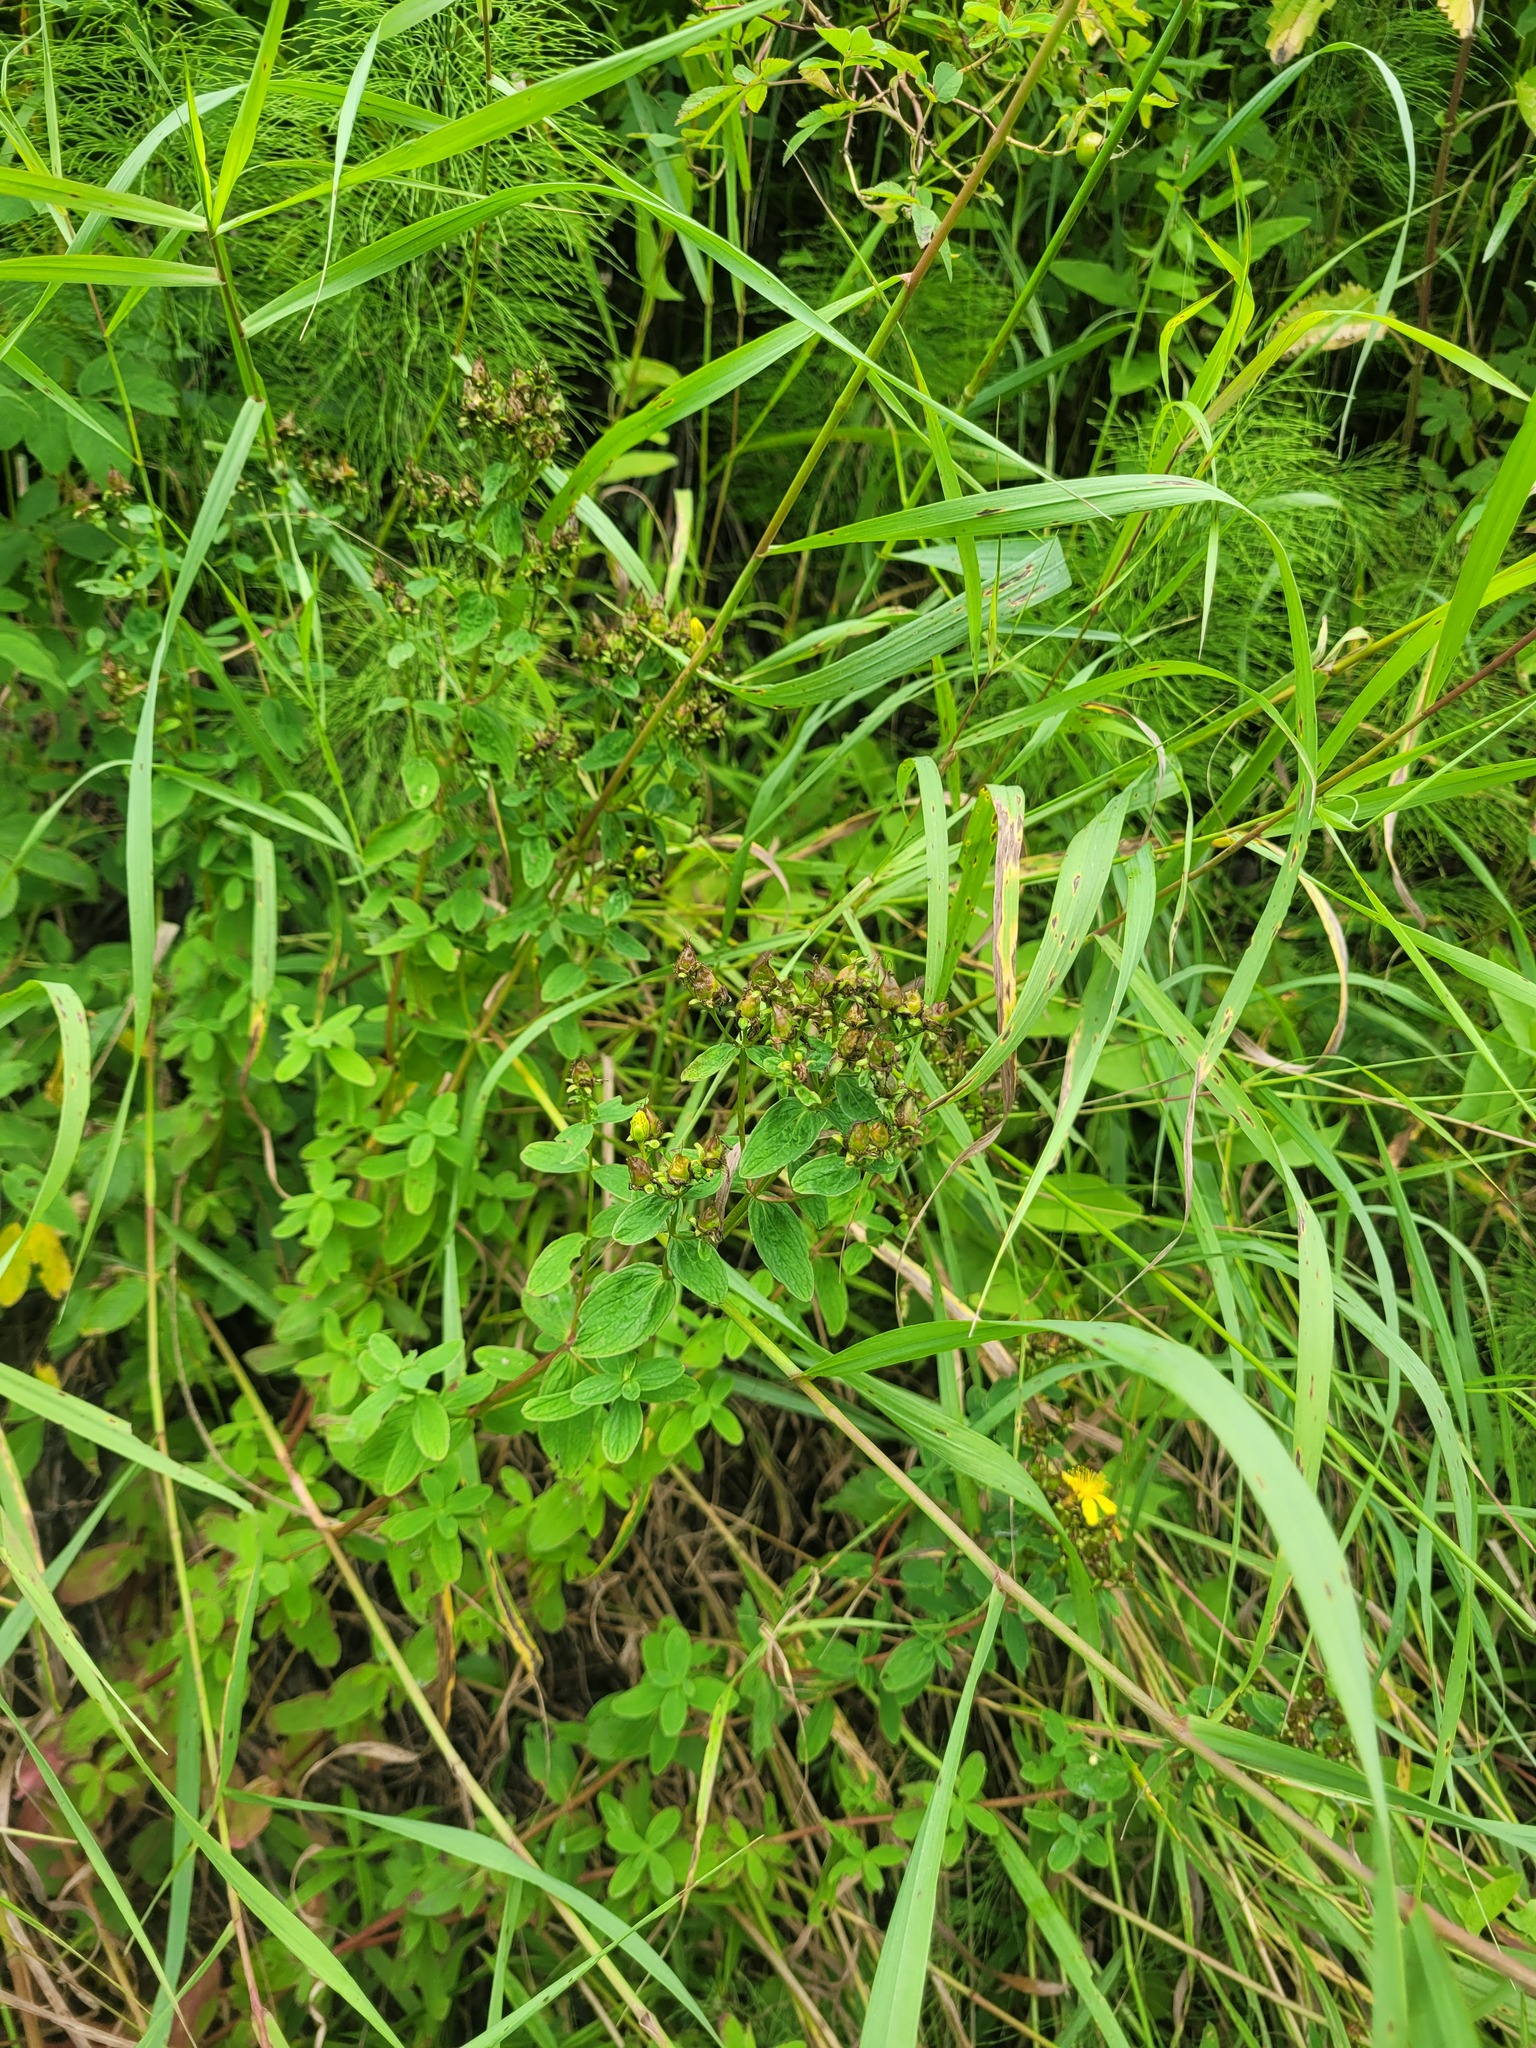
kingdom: Plantae
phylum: Tracheophyta
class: Magnoliopsida
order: Malpighiales
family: Hypericaceae
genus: Hypericum
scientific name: Hypericum maculatum
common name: Imperforate st. john's-wort
